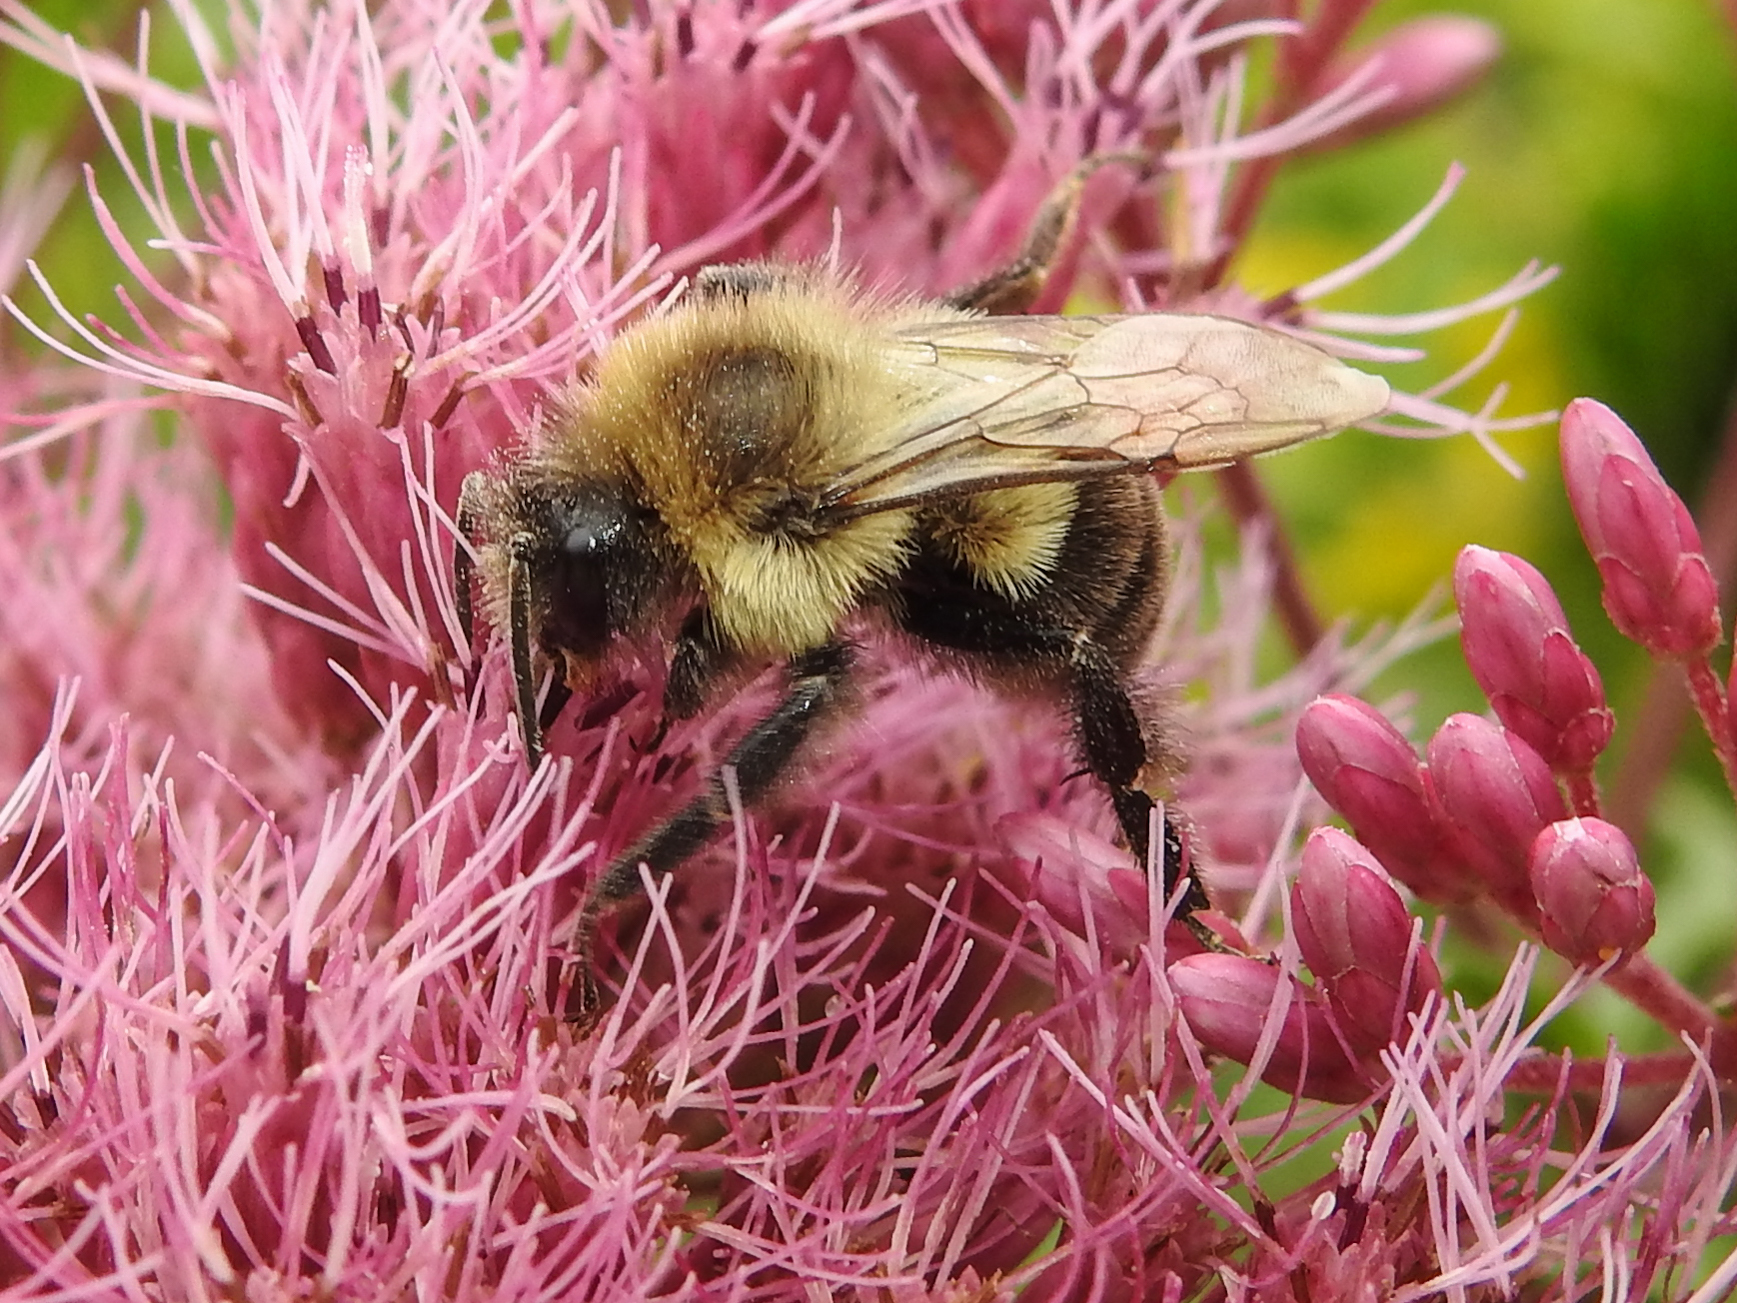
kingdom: Animalia
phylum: Arthropoda
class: Insecta
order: Hymenoptera
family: Apidae
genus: Bombus
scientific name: Bombus impatiens
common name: Common eastern bumble bee
